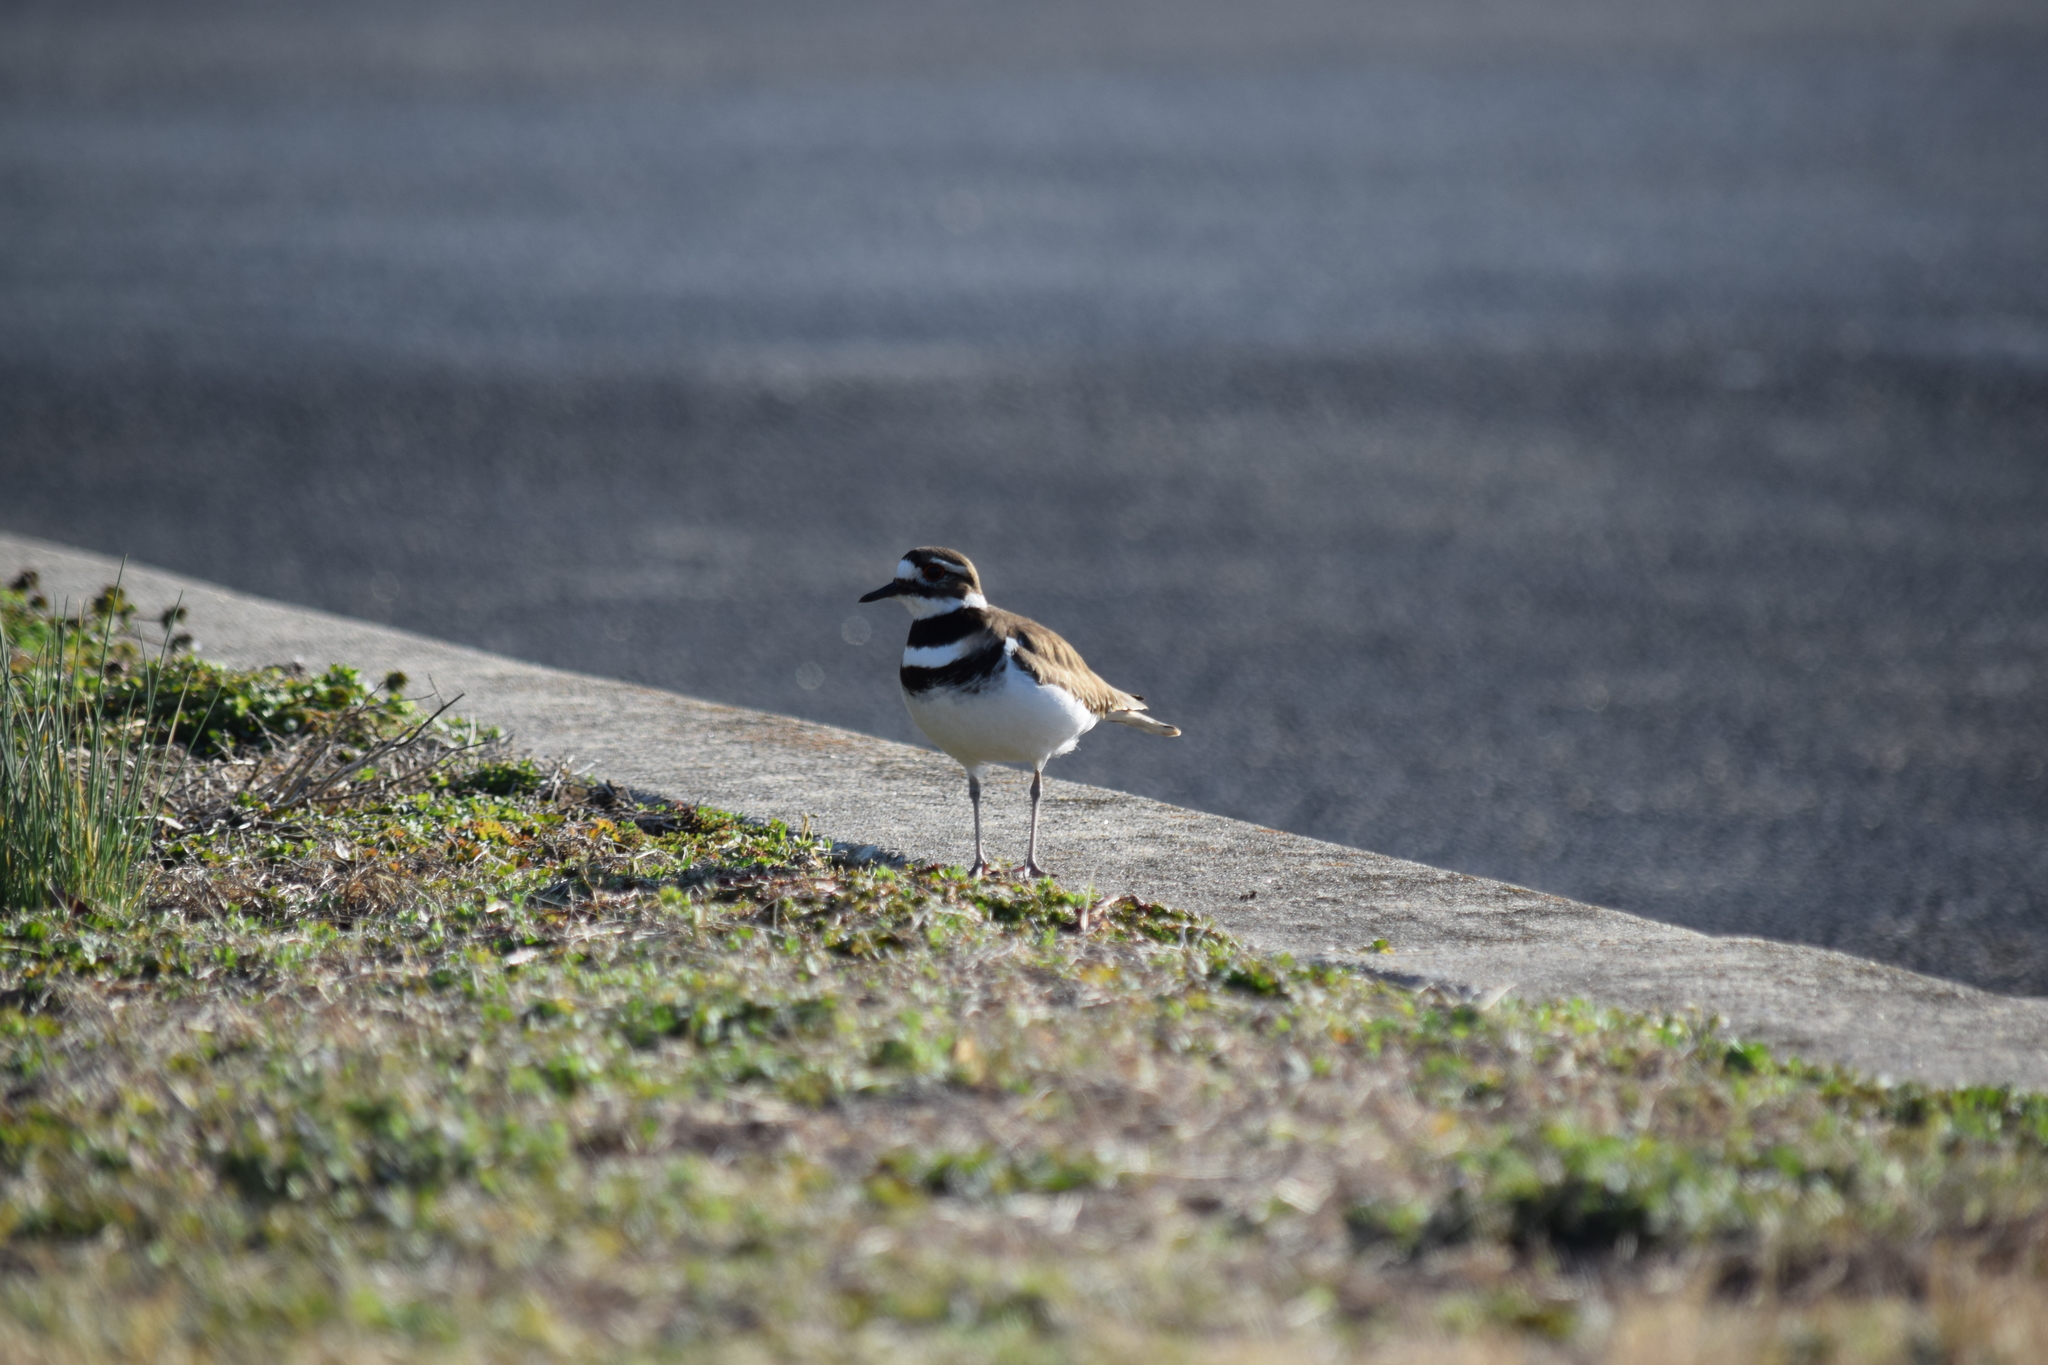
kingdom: Animalia
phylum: Chordata
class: Aves
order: Charadriiformes
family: Charadriidae
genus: Charadrius
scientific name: Charadrius vociferus
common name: Killdeer
